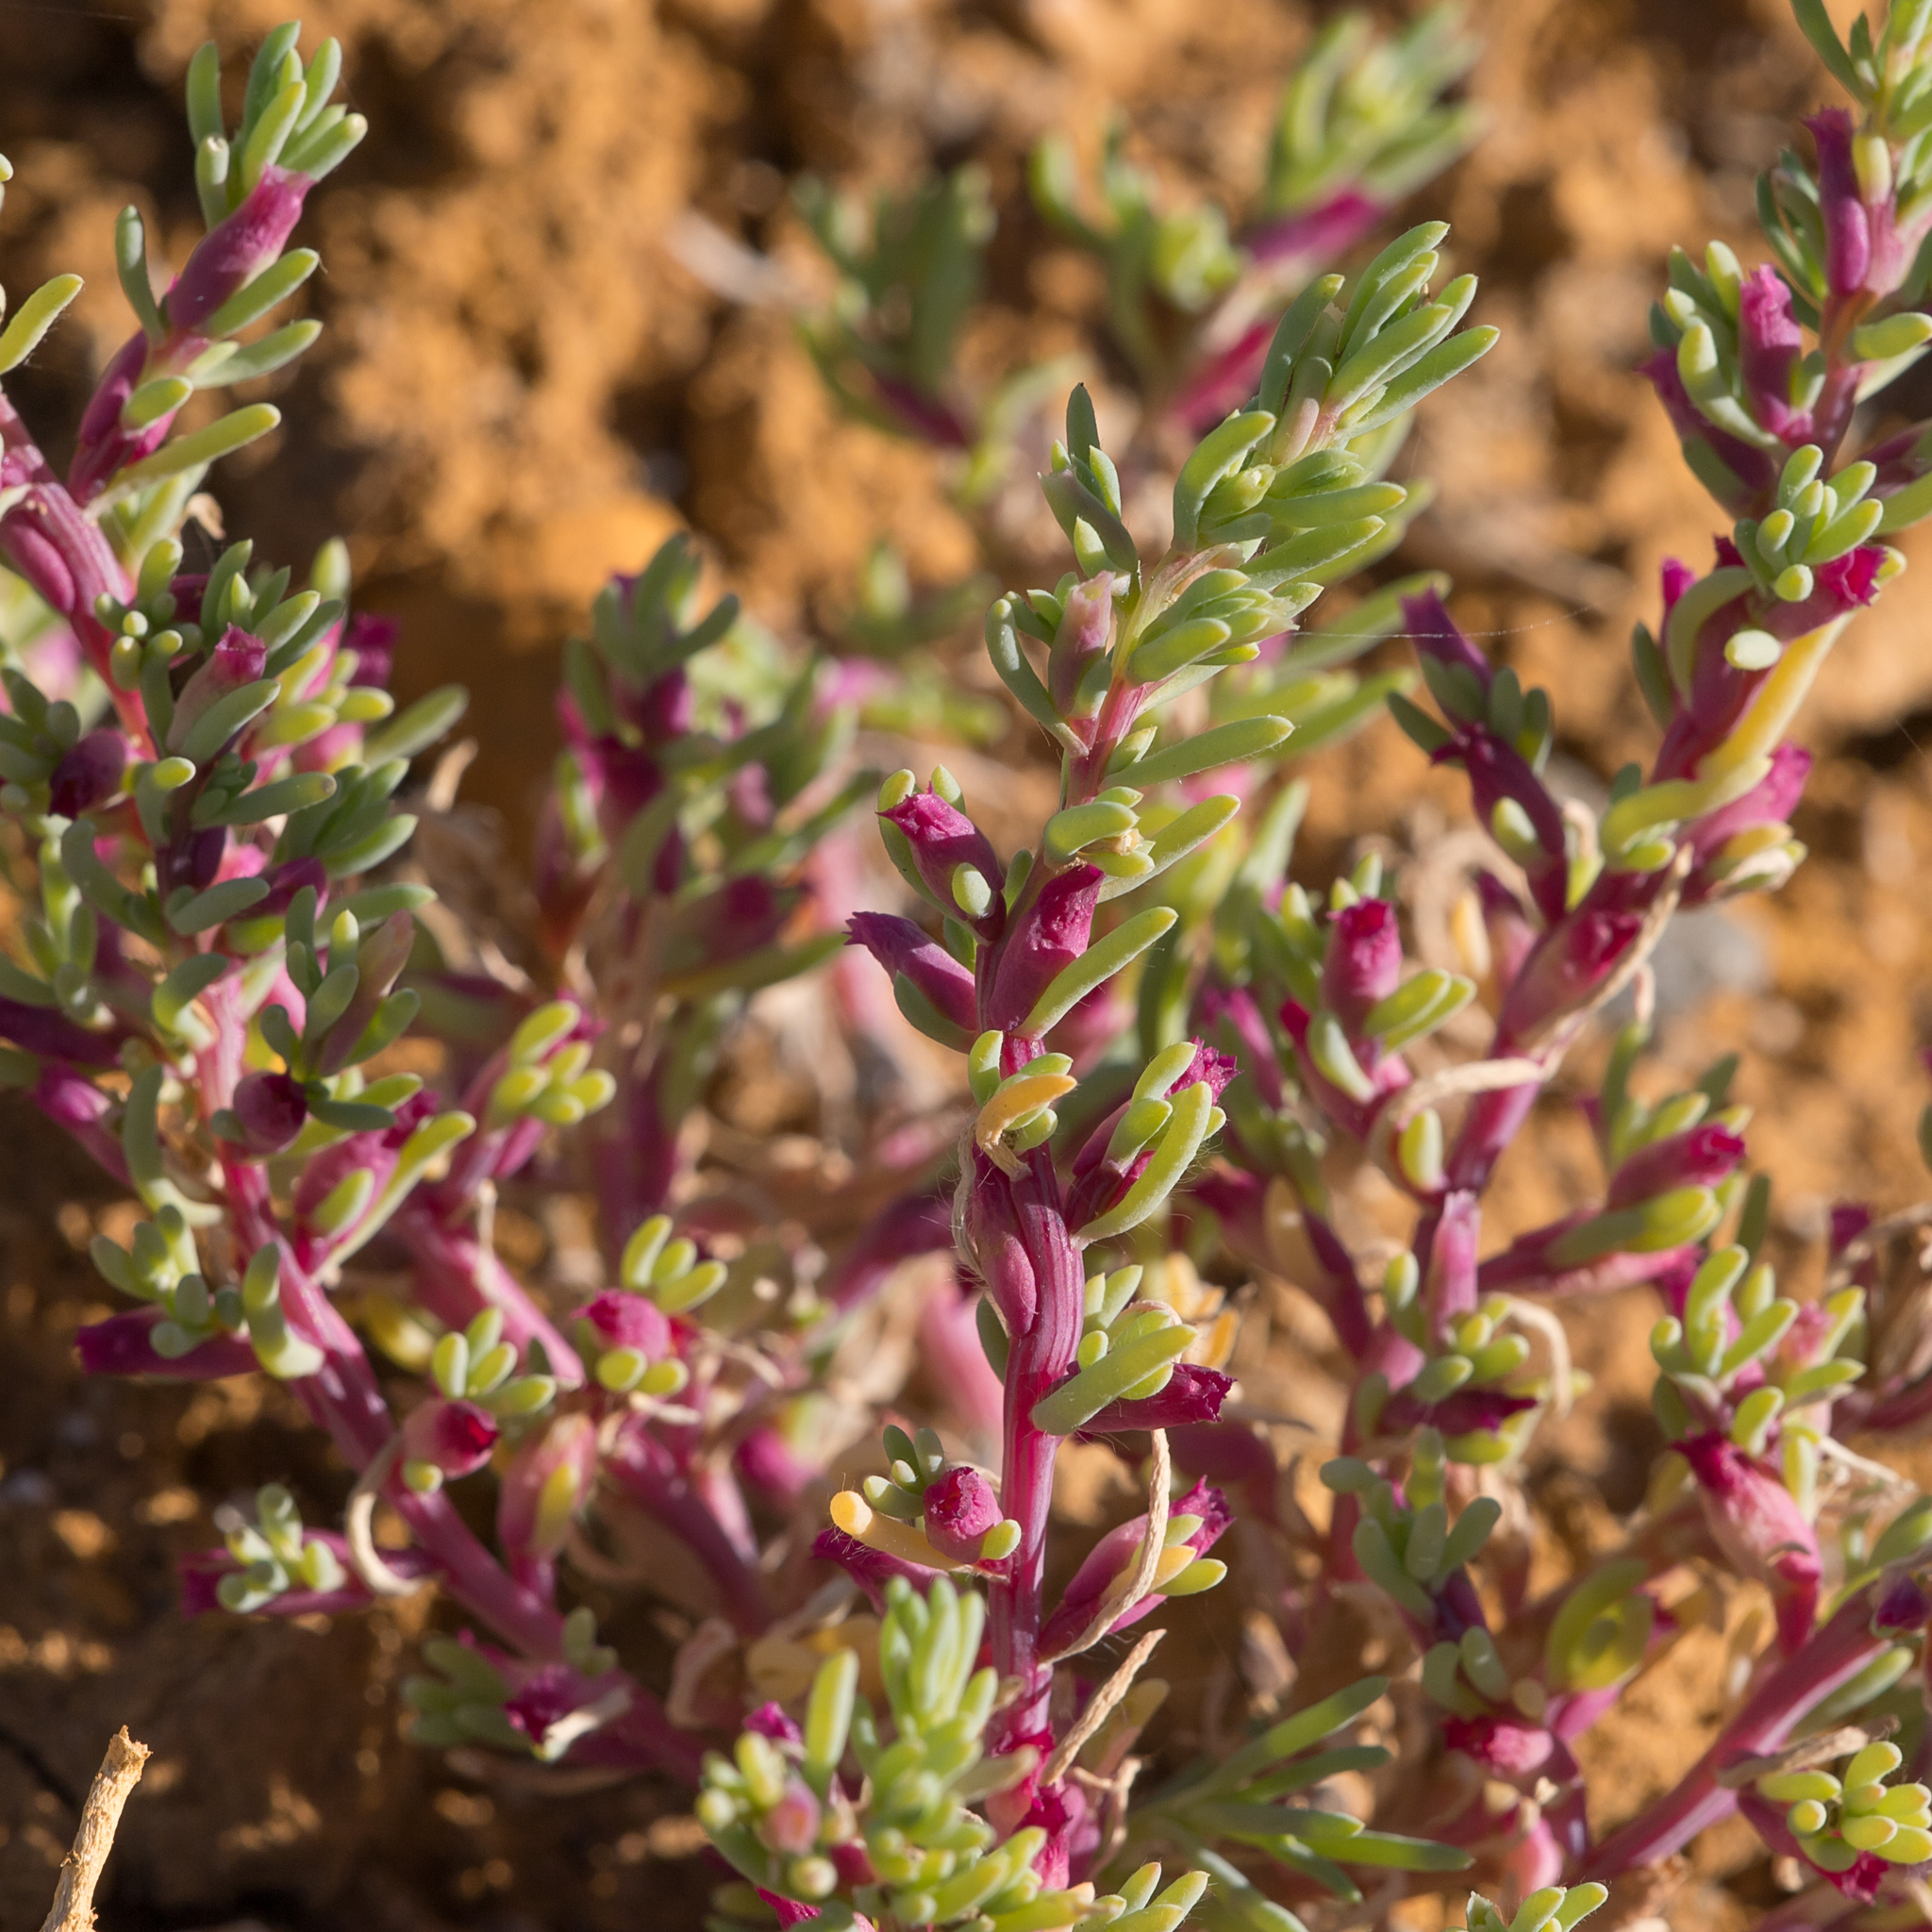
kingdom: Plantae
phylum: Tracheophyta
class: Magnoliopsida
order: Caryophyllales
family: Amaranthaceae
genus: Neobassia
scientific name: Neobassia proceriflora
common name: Desert-glasswort
